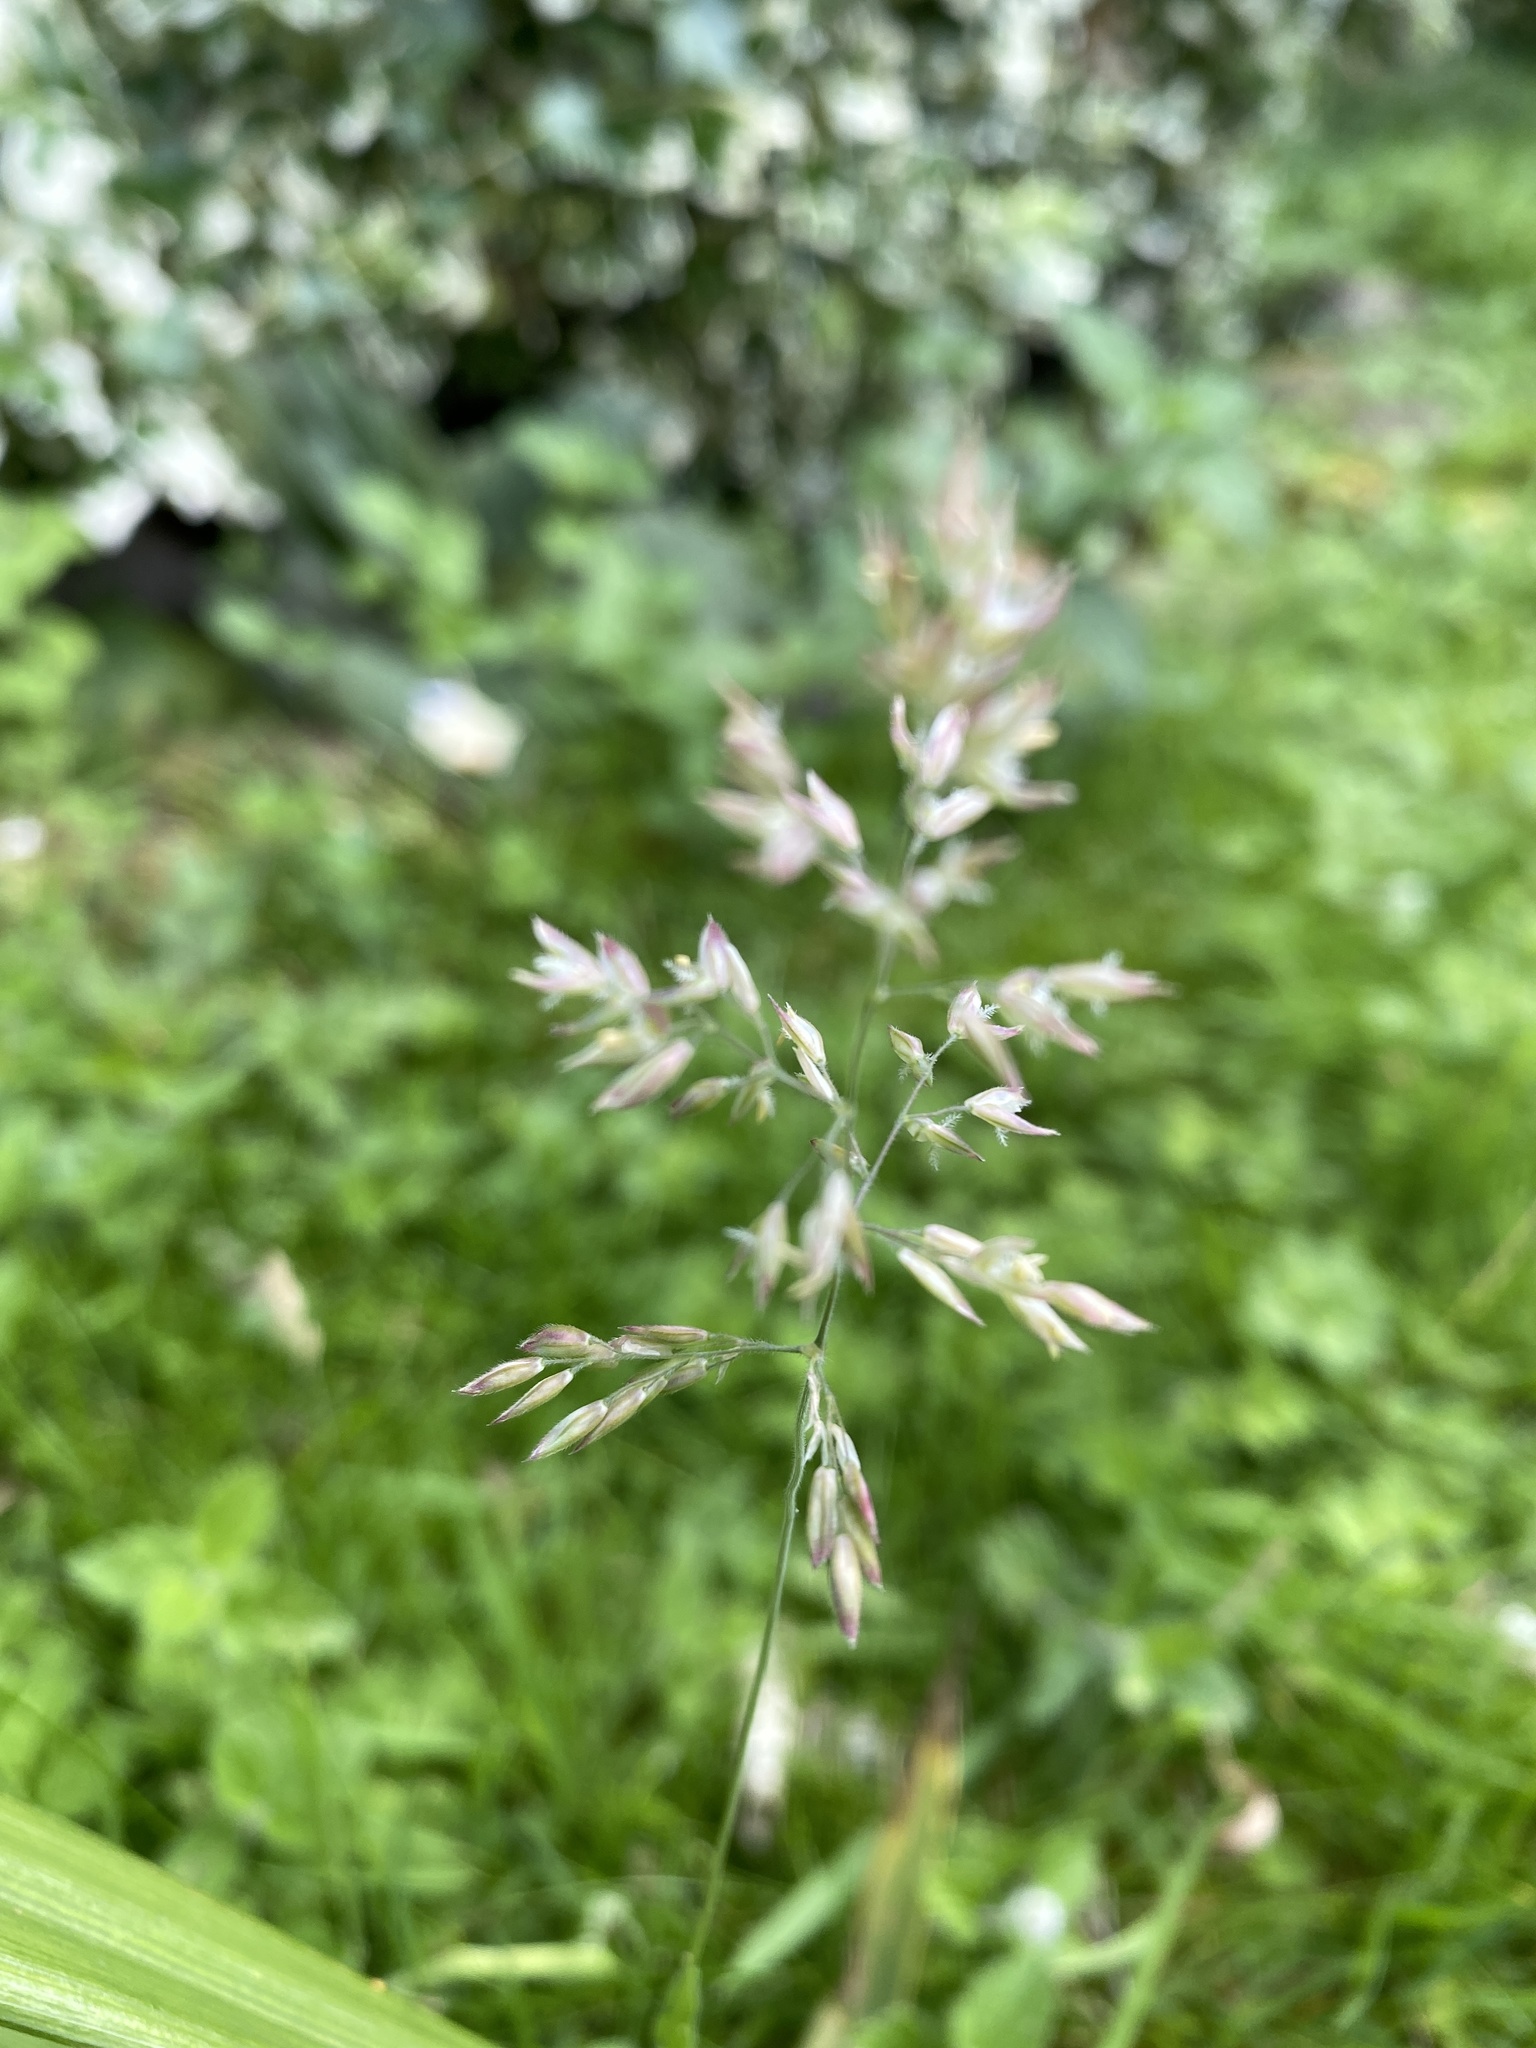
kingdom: Plantae
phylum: Tracheophyta
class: Liliopsida
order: Poales
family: Poaceae
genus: Holcus
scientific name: Holcus lanatus
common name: Yorkshire-fog
